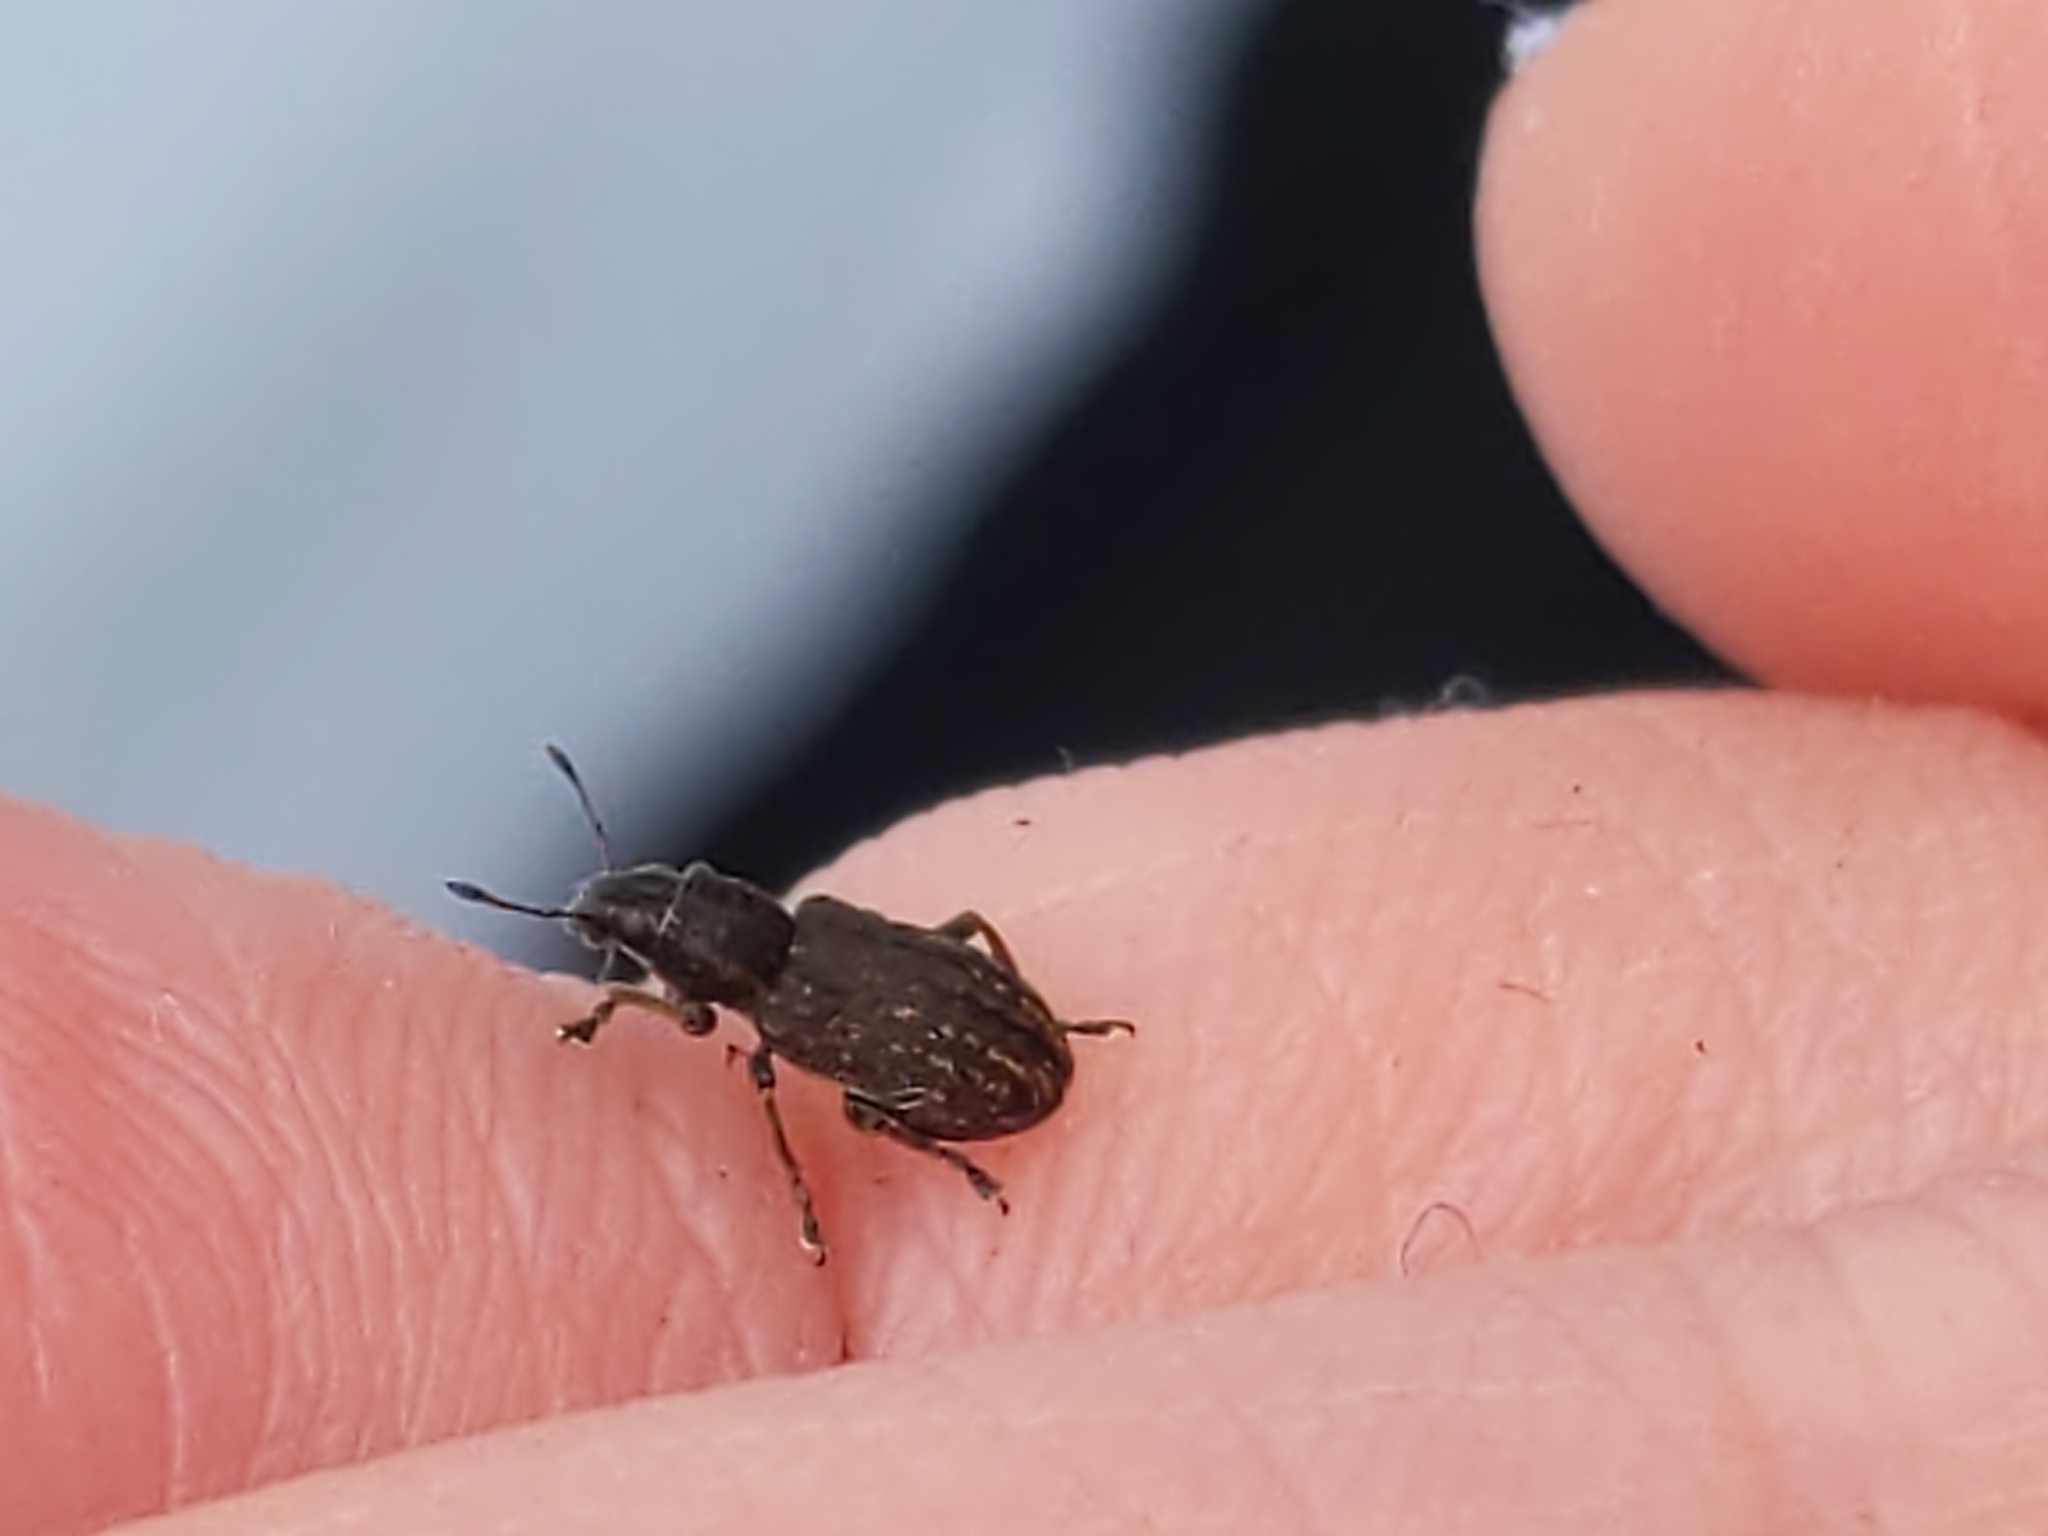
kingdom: Animalia
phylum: Arthropoda
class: Insecta
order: Coleoptera
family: Curculionidae
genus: Sitona
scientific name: Sitona
